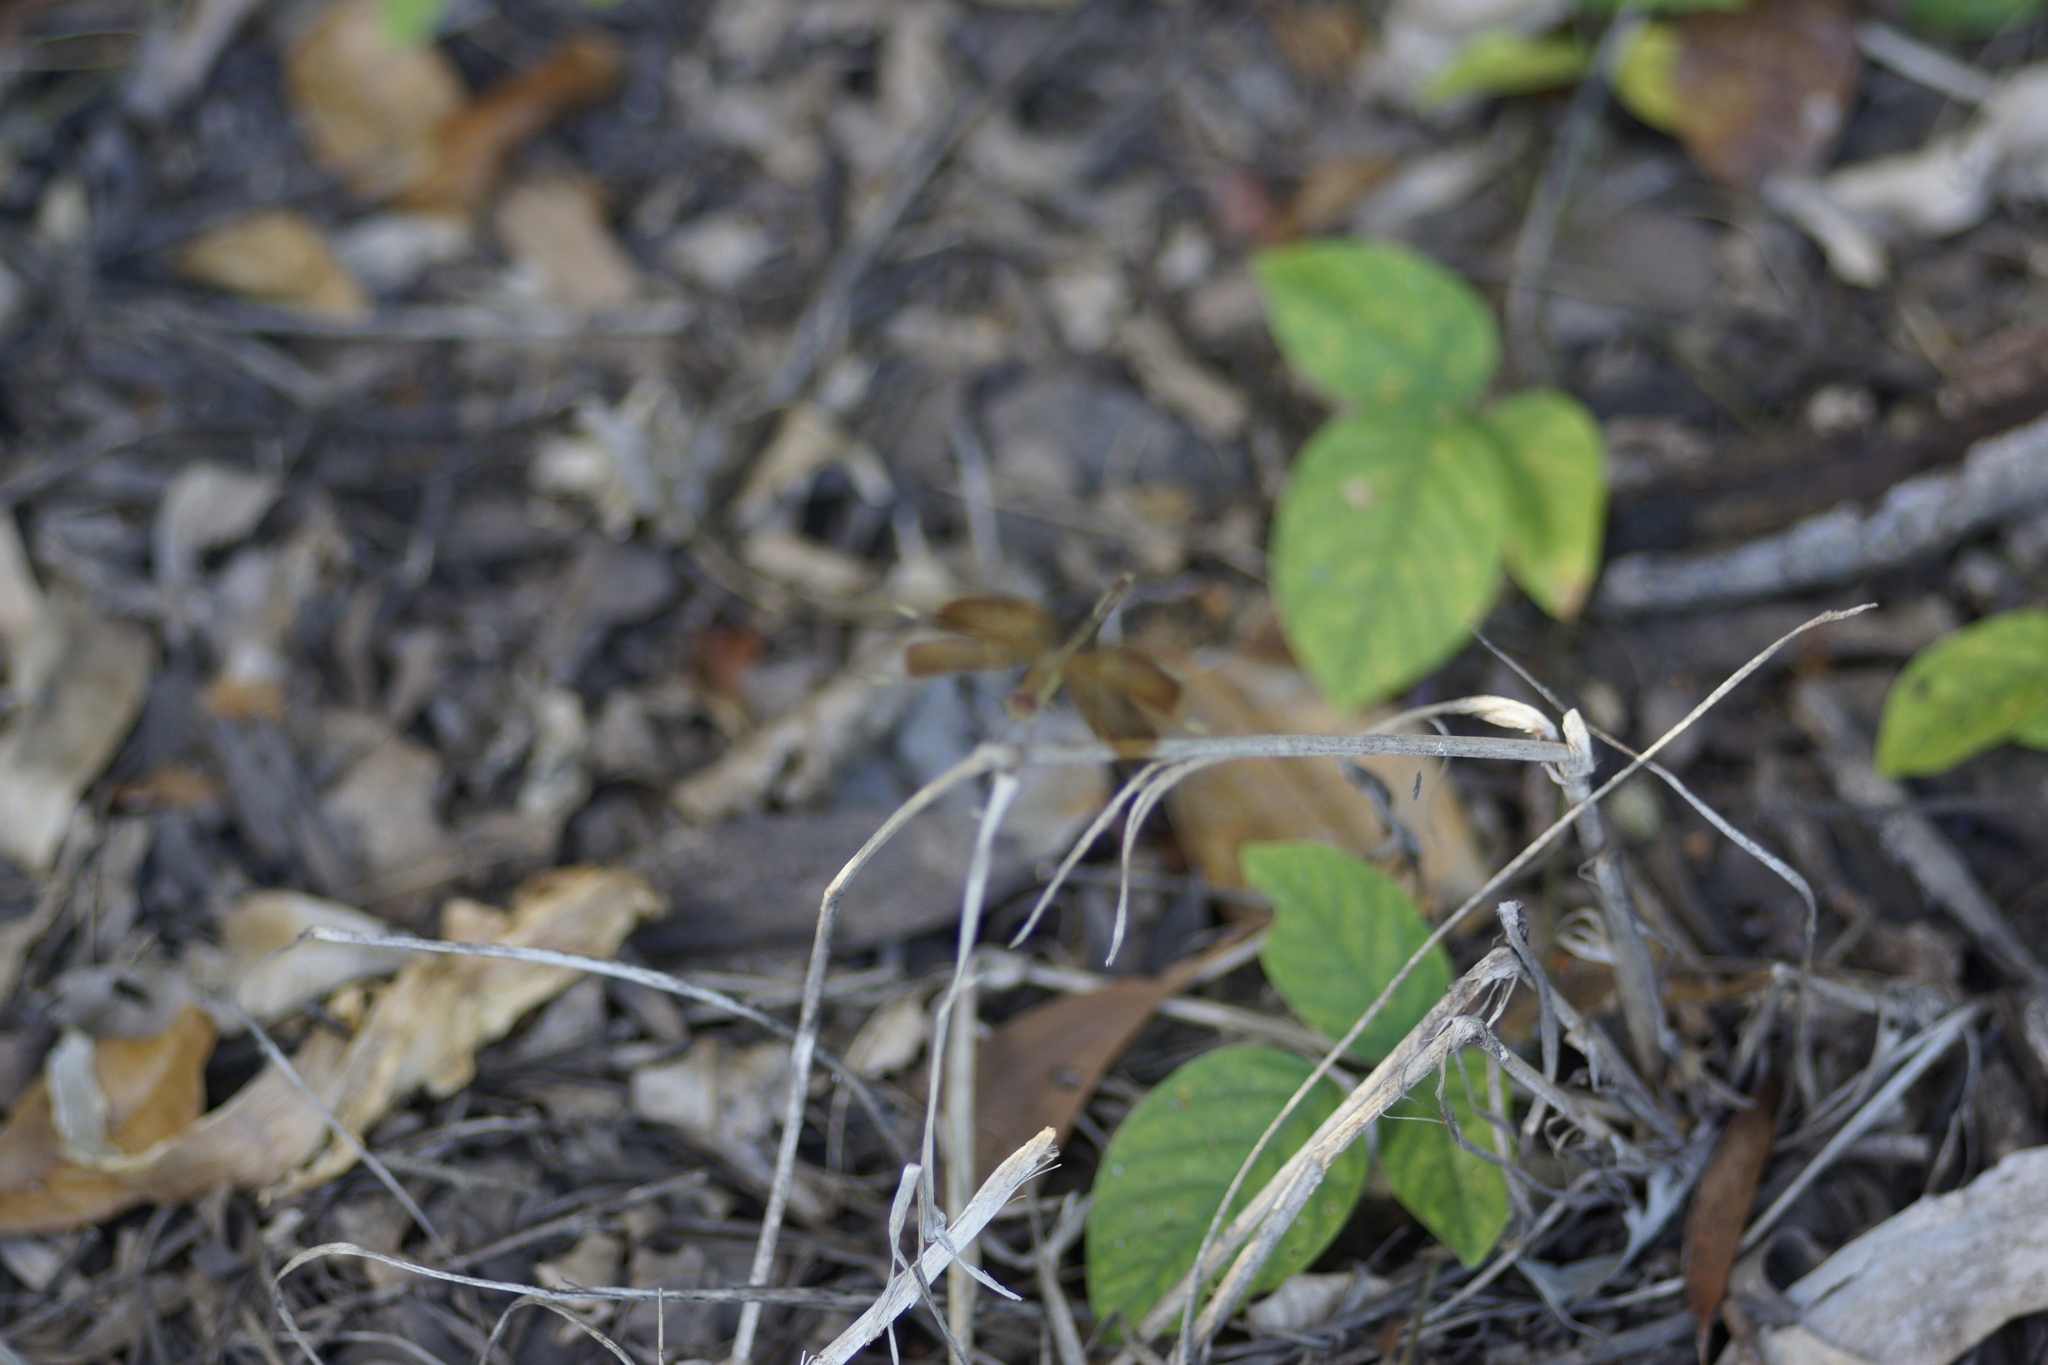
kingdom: Animalia
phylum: Arthropoda
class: Insecta
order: Odonata
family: Libellulidae
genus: Neurothemis
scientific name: Neurothemis stigmatizans
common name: Painted grasshawk
